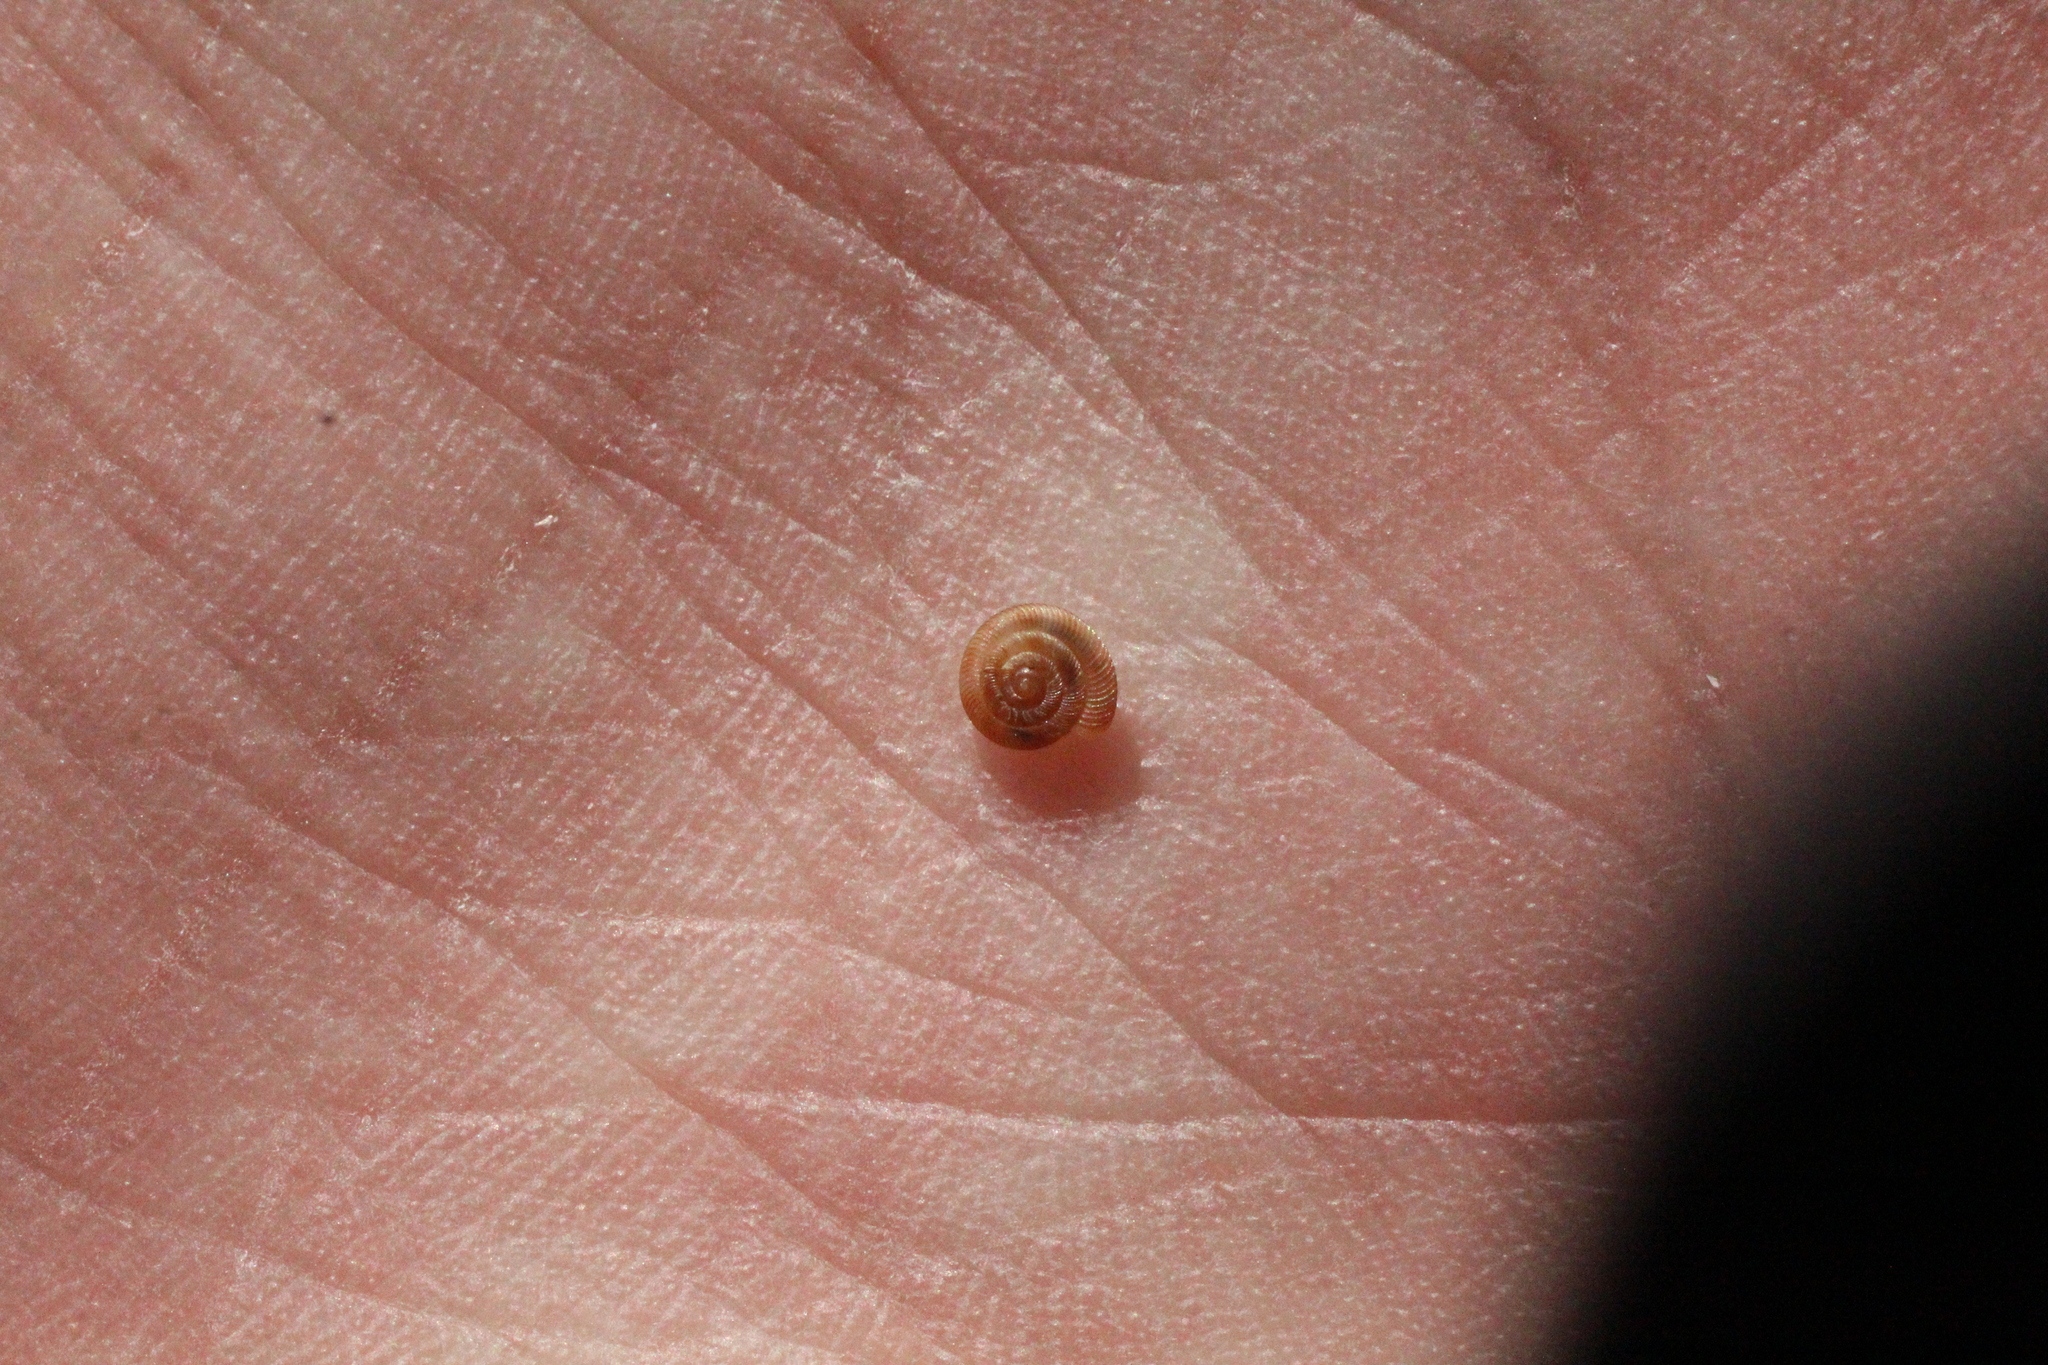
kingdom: Animalia
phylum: Mollusca
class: Gastropoda
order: Stylommatophora
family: Discidae
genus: Discus
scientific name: Discus rotundatus
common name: Rounded snail
